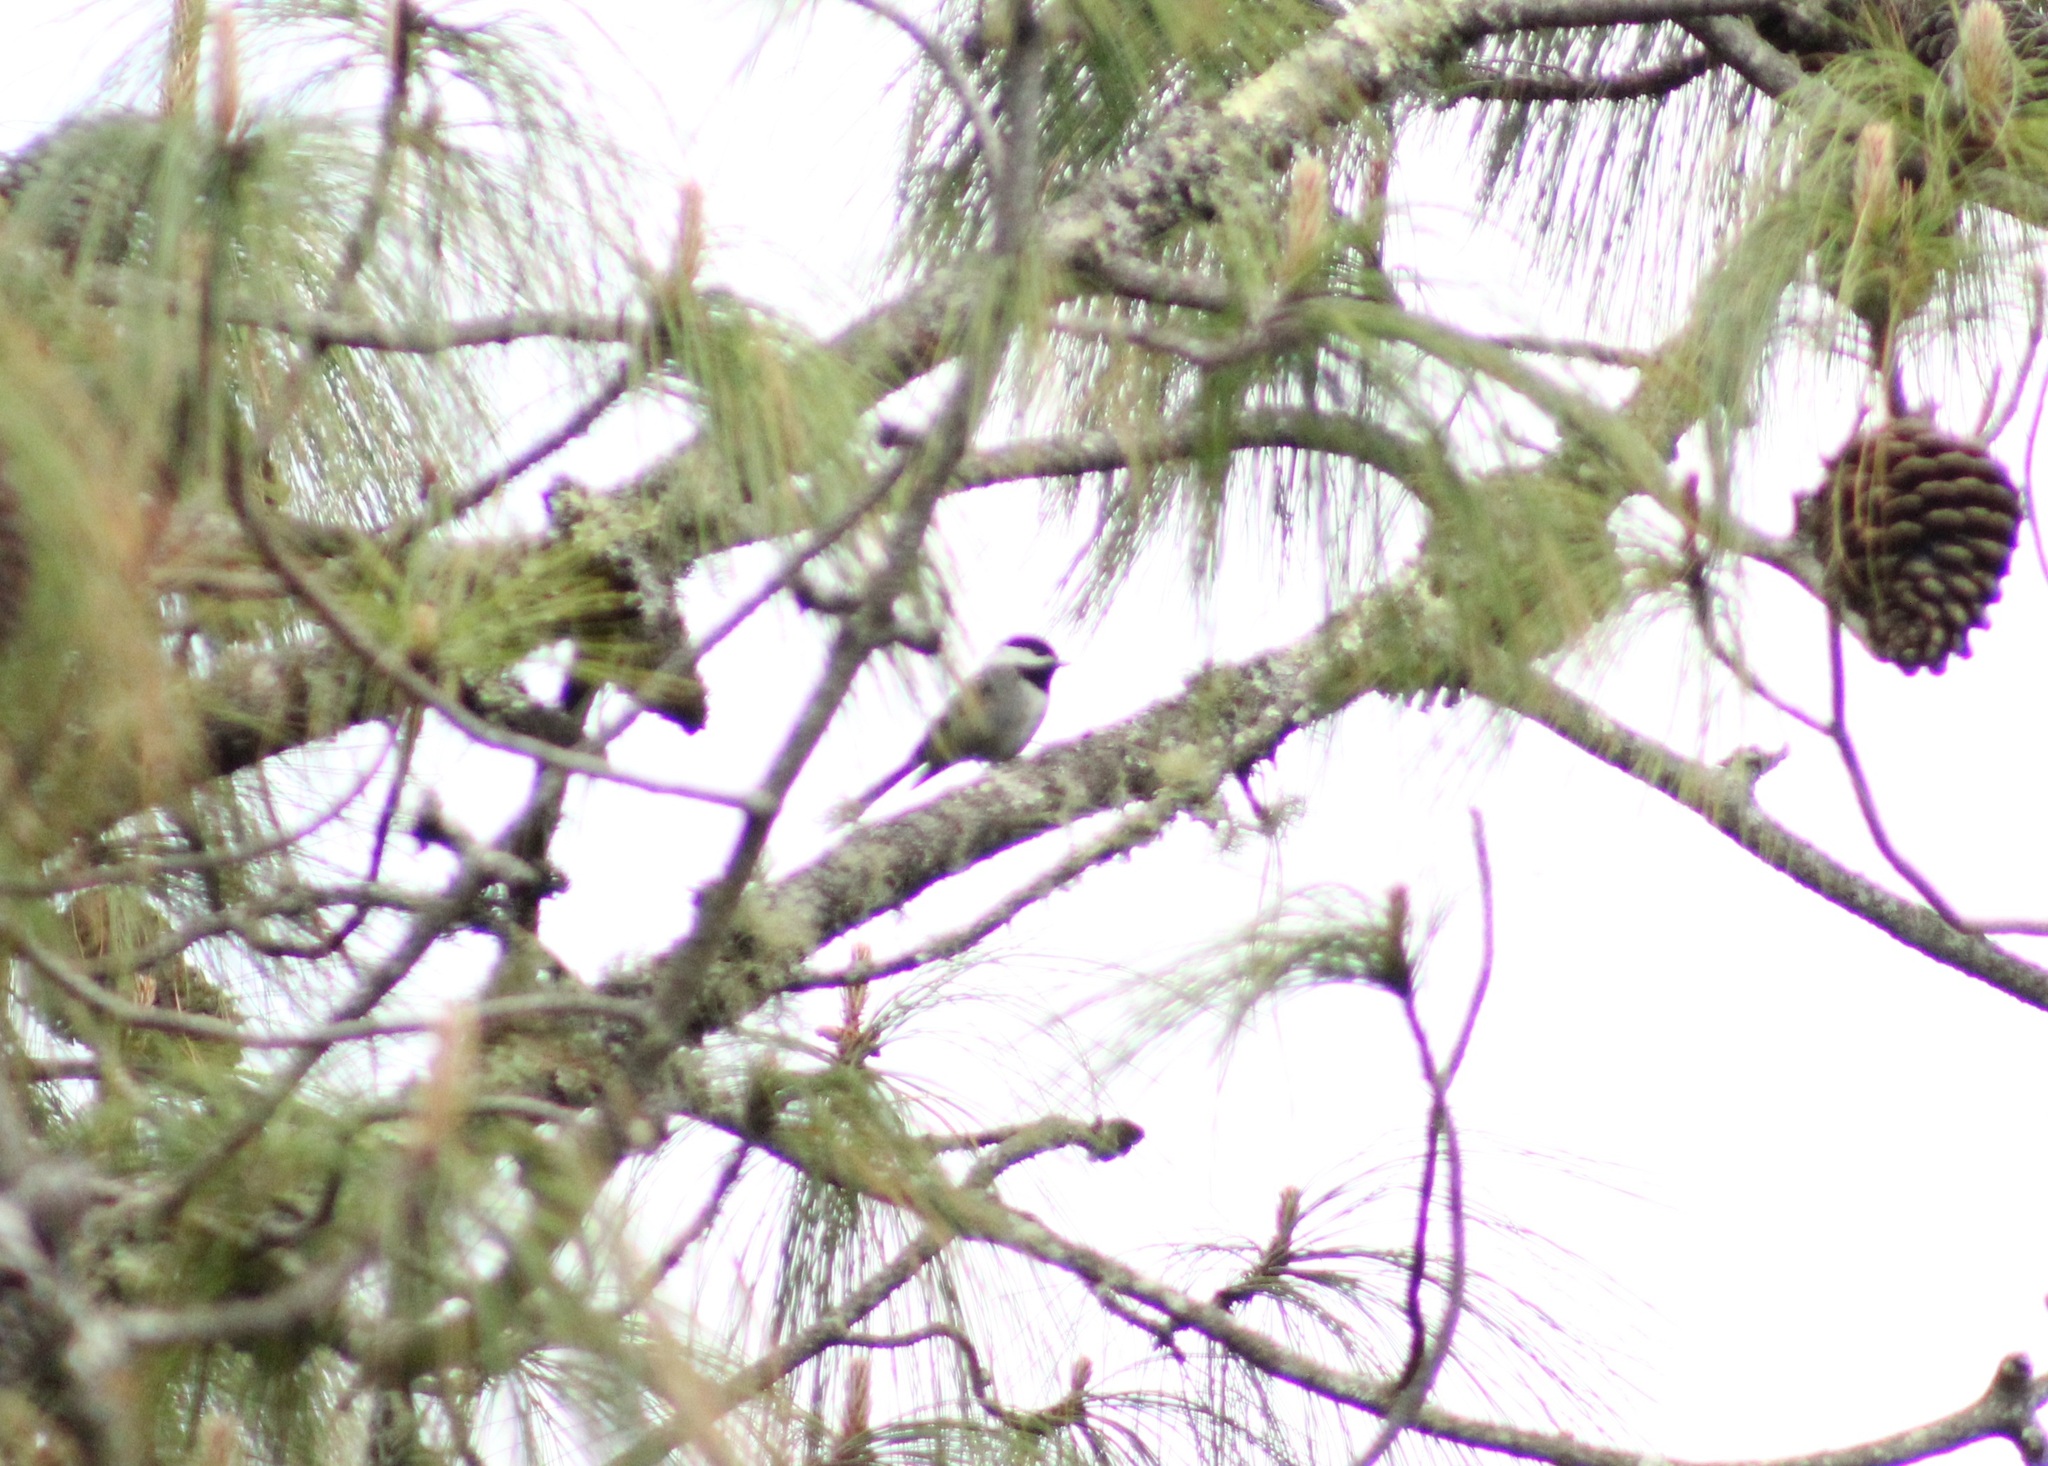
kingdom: Animalia
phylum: Chordata
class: Aves
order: Passeriformes
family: Paridae
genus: Poecile
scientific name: Poecile sclateri
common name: Mexican chickadee
